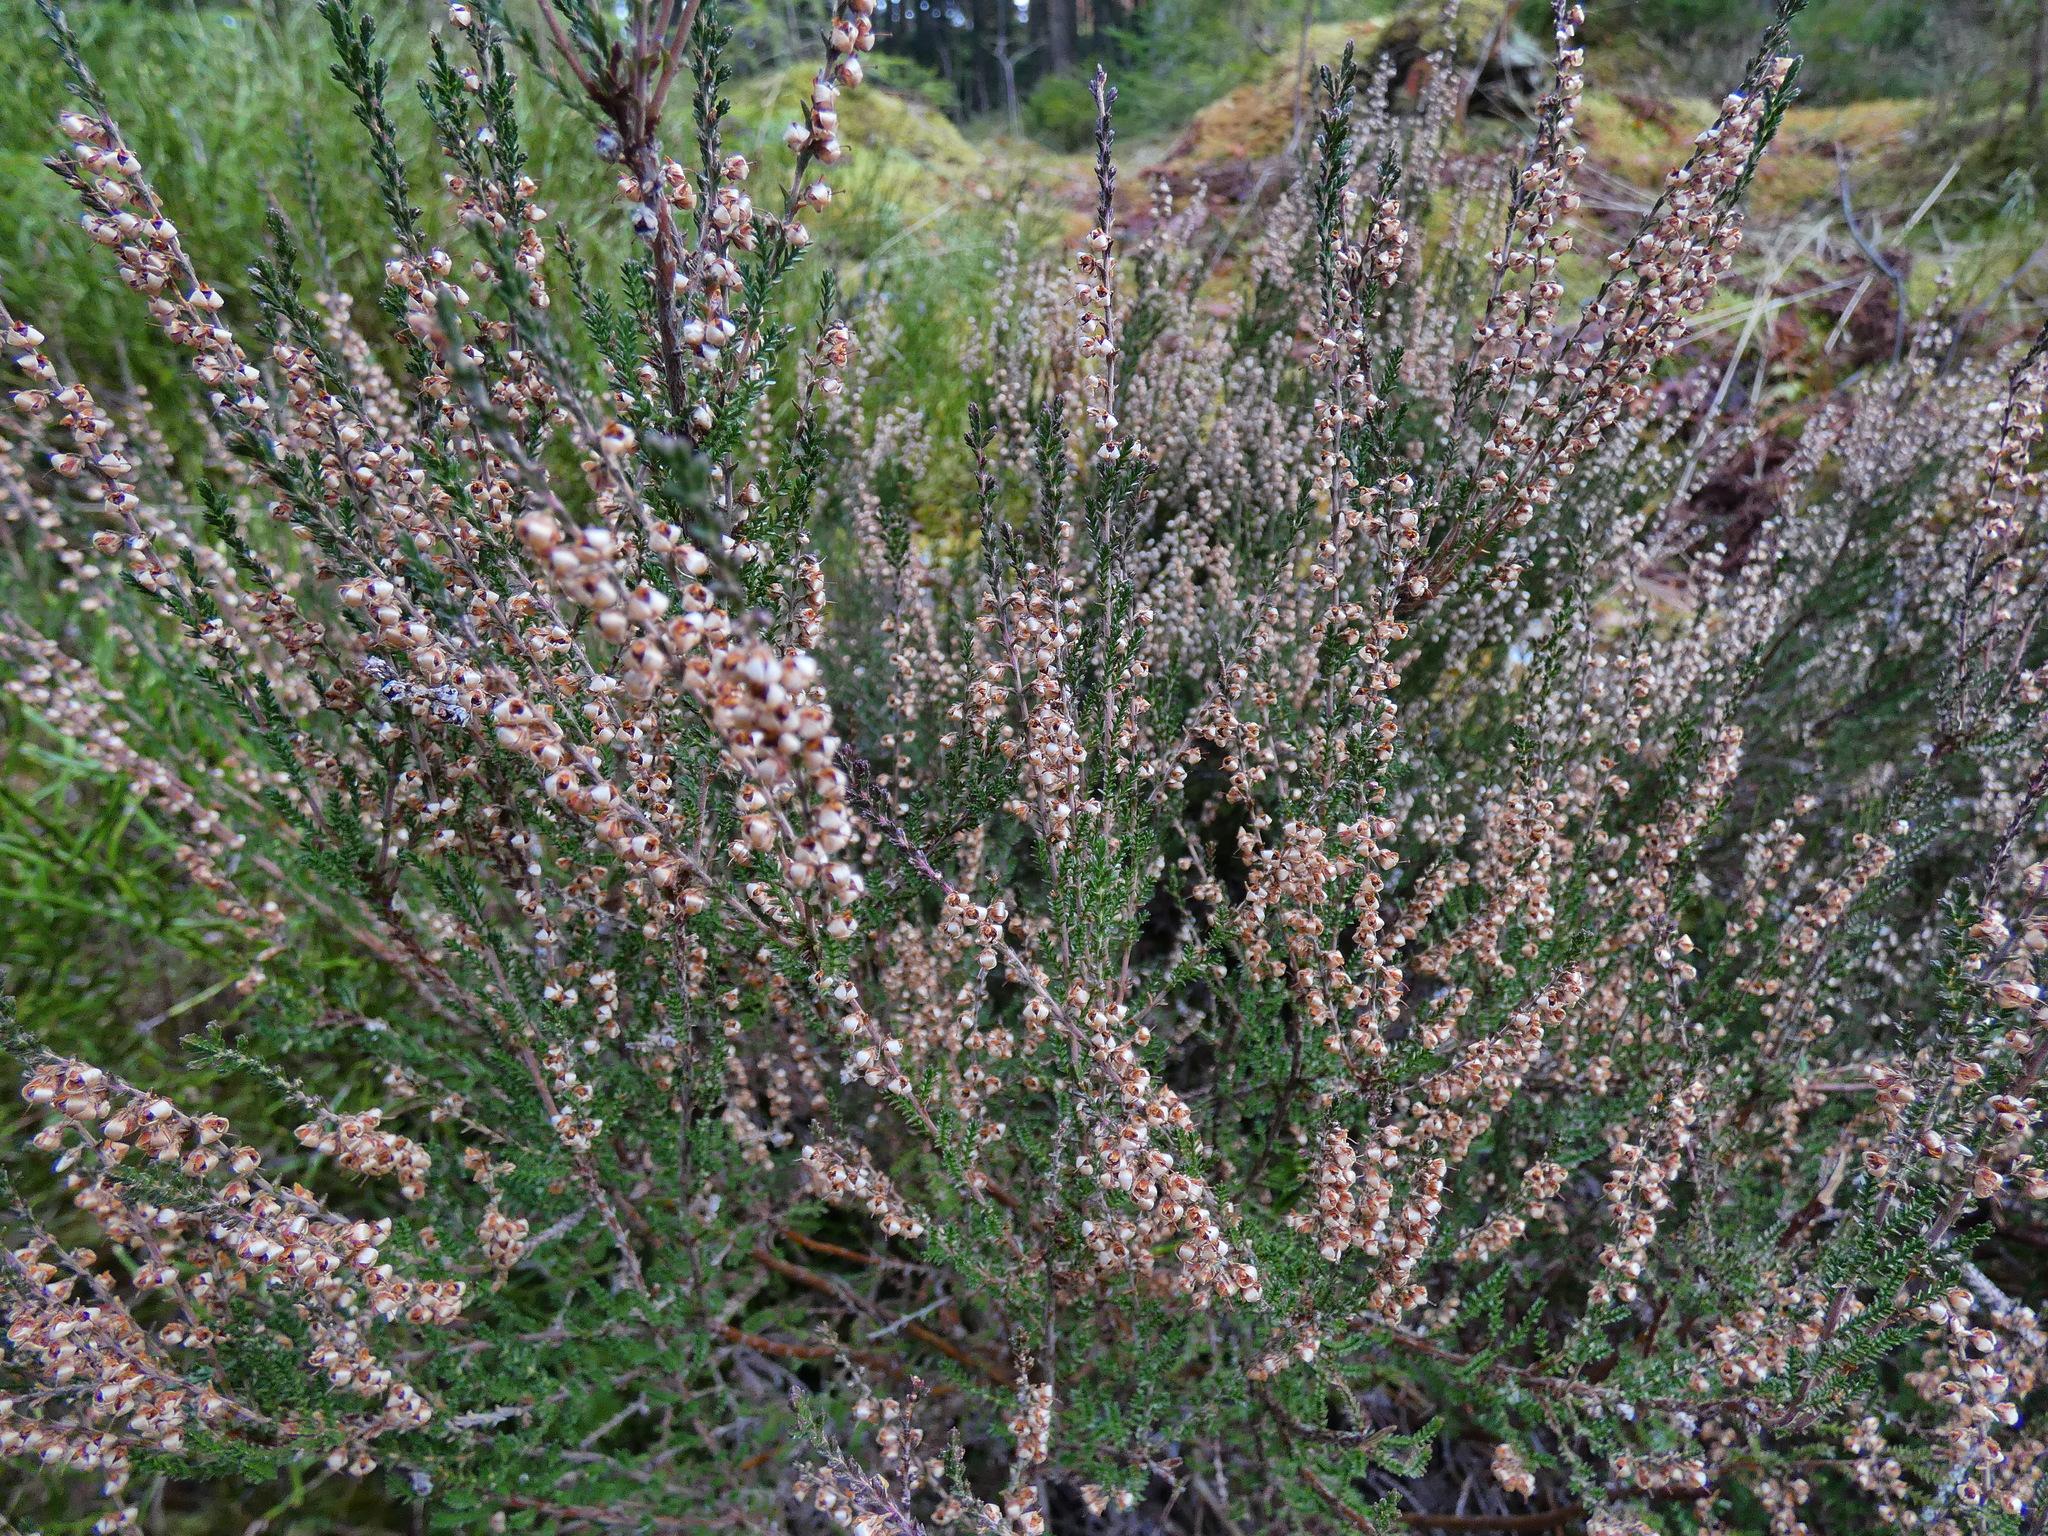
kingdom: Plantae
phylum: Tracheophyta
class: Magnoliopsida
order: Ericales
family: Ericaceae
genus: Calluna
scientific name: Calluna vulgaris
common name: Heather
